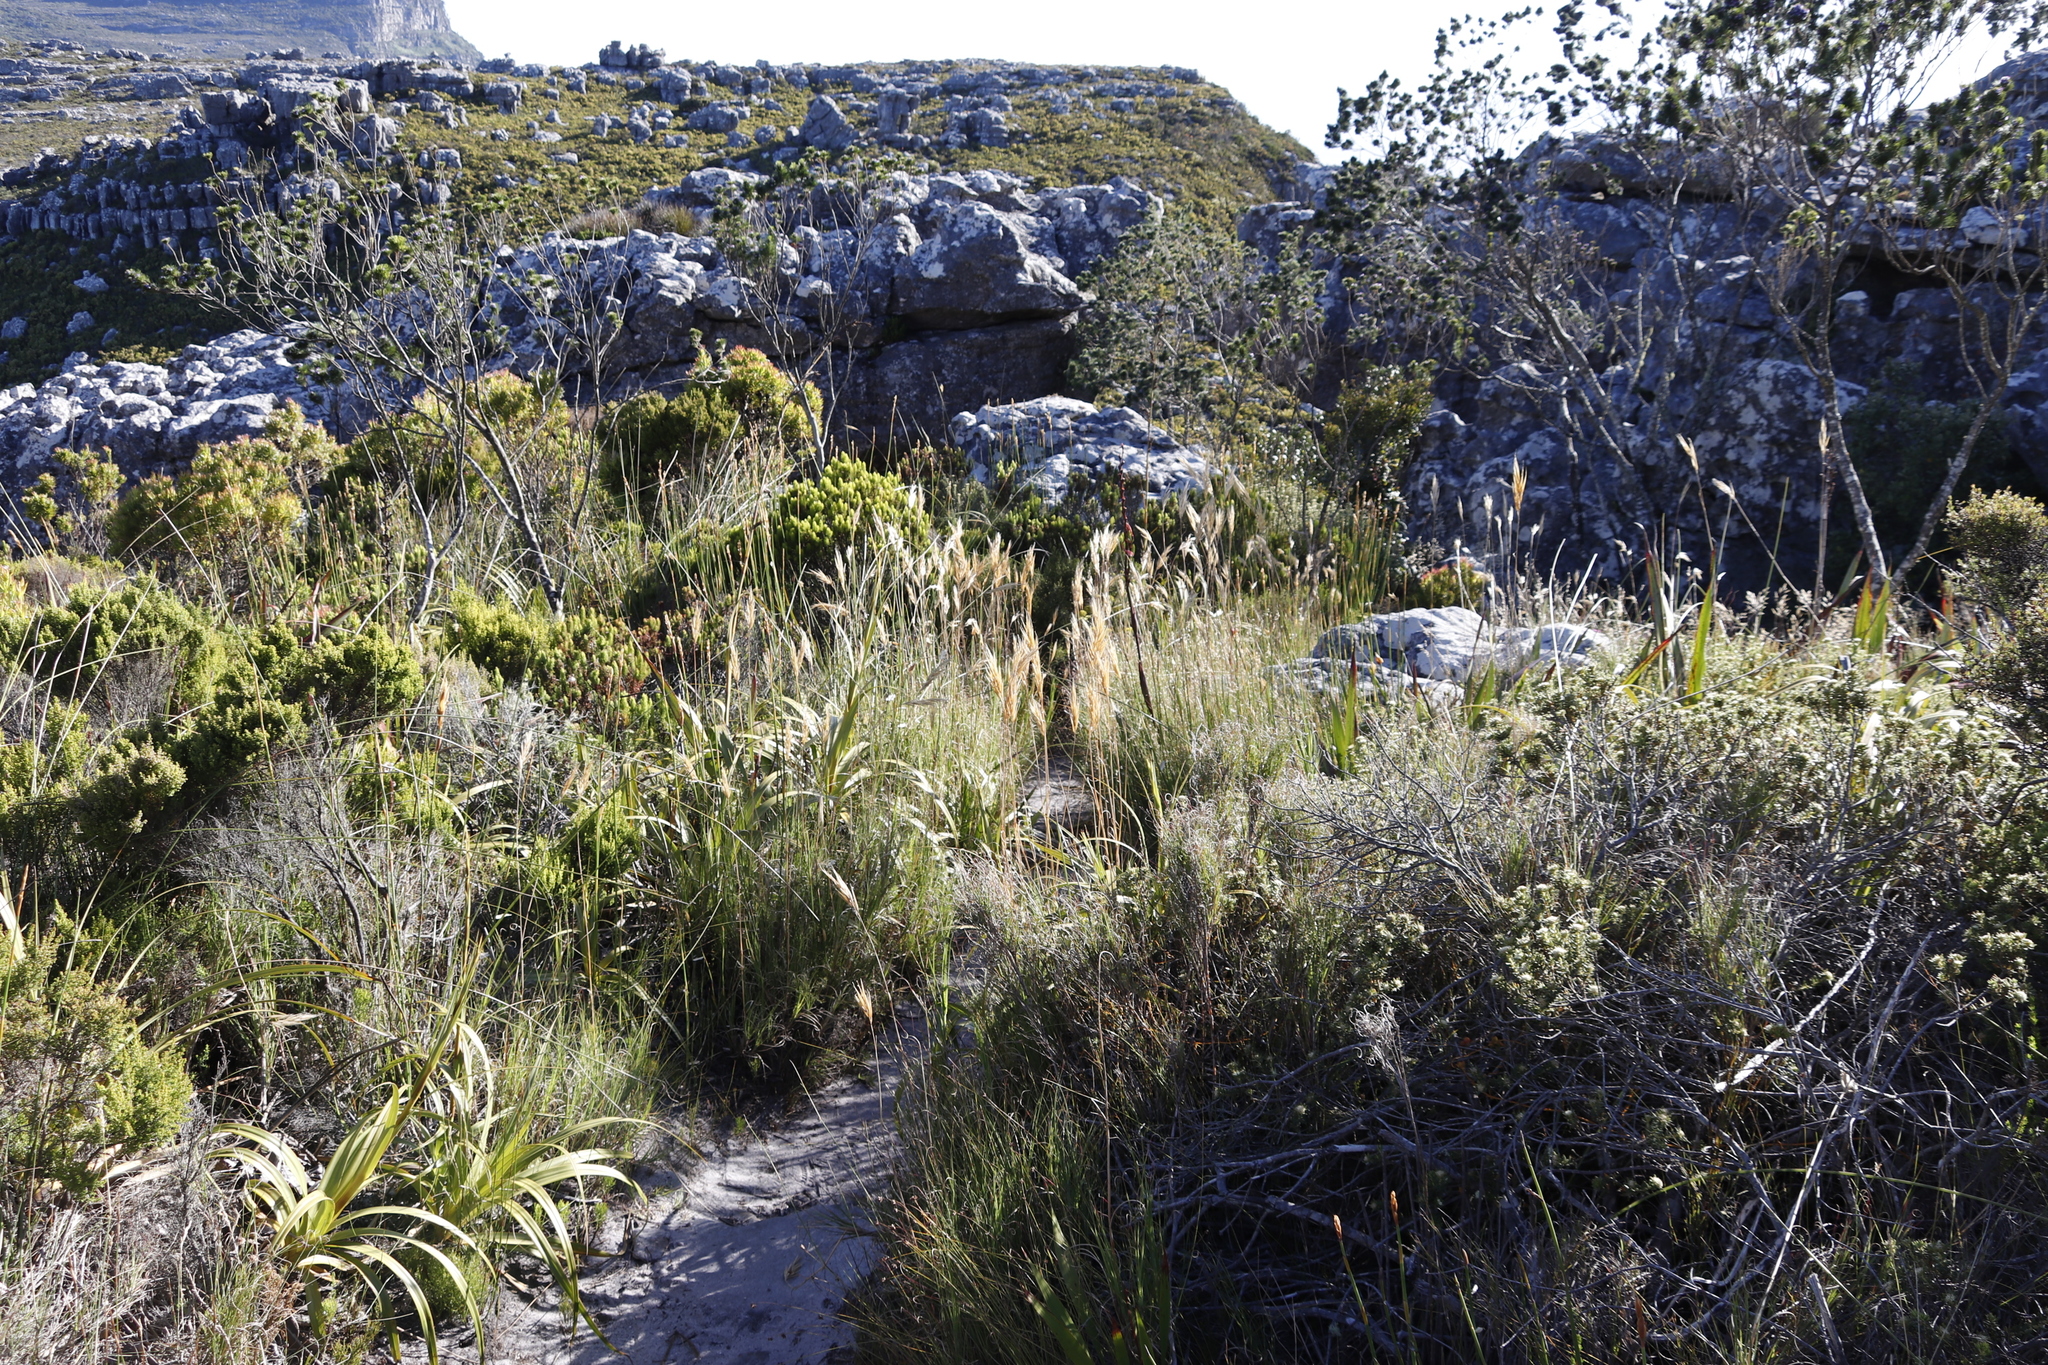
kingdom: Plantae
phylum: Tracheophyta
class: Magnoliopsida
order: Fabales
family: Fabaceae
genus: Psoralea
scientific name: Psoralea pinnata
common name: African scurfpea
